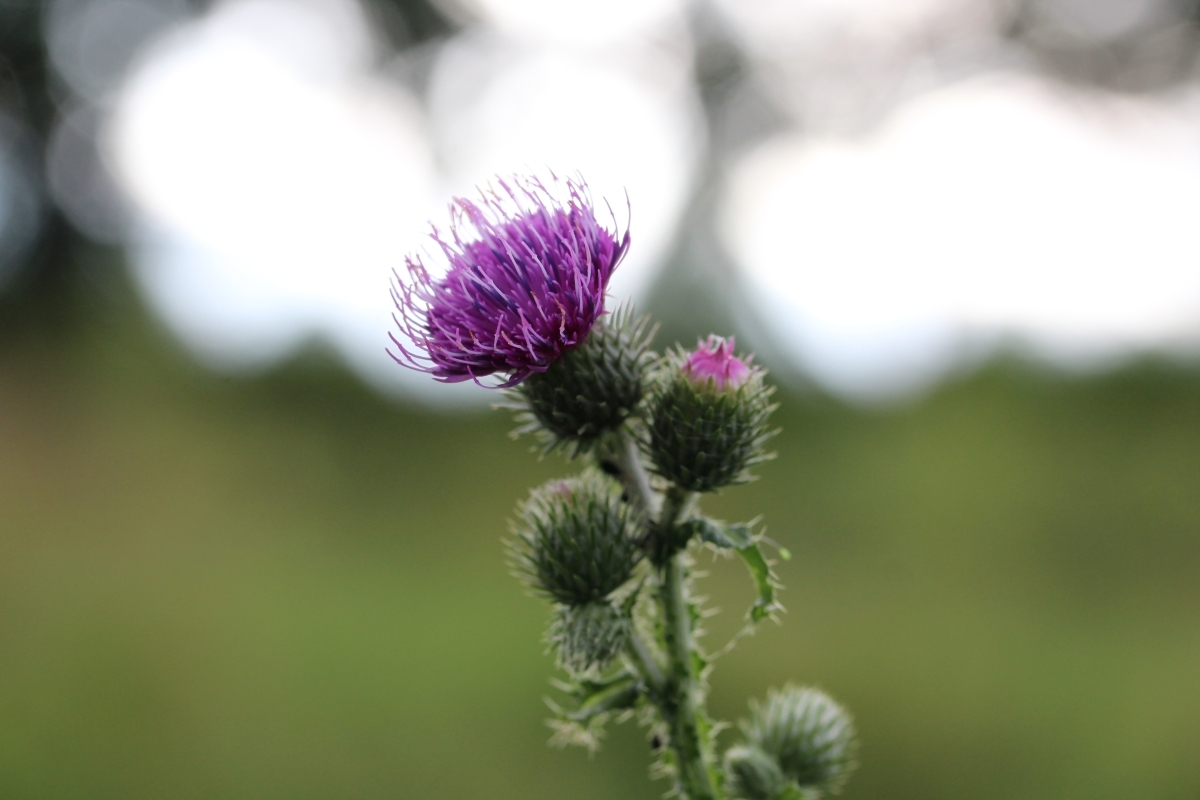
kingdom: Plantae
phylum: Tracheophyta
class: Magnoliopsida
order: Asterales
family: Asteraceae
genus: Carduus
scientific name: Carduus crispus
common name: Welted thistle
